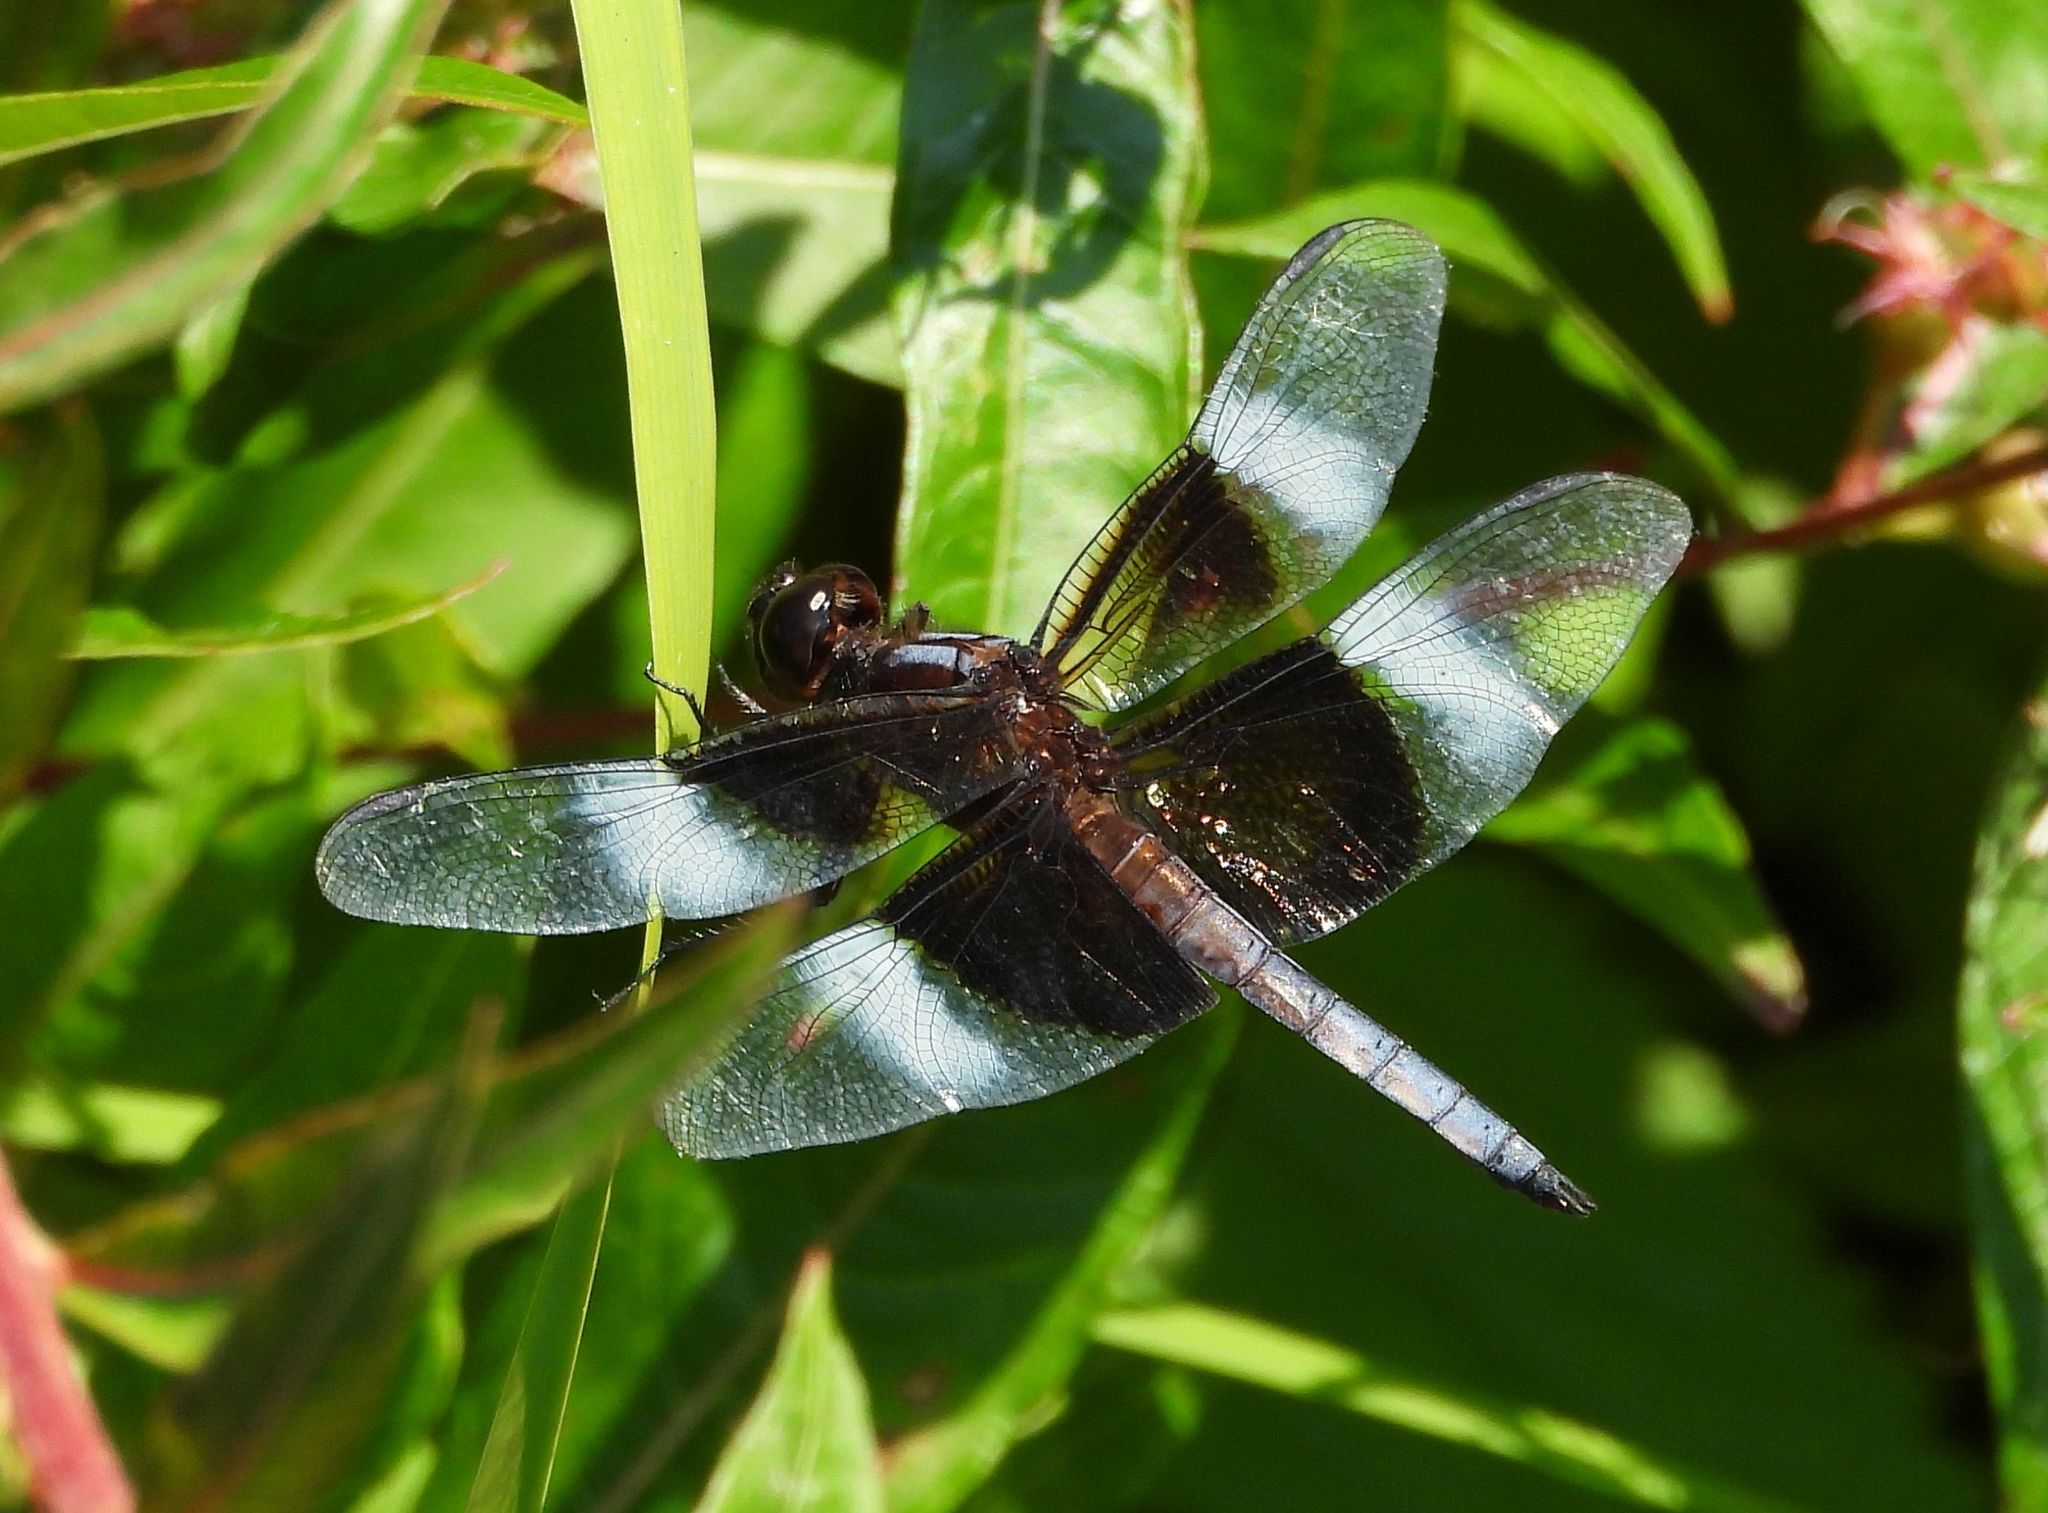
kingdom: Animalia
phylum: Arthropoda
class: Insecta
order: Odonata
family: Libellulidae
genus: Libellula
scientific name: Libellula luctuosa
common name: Widow skimmer
